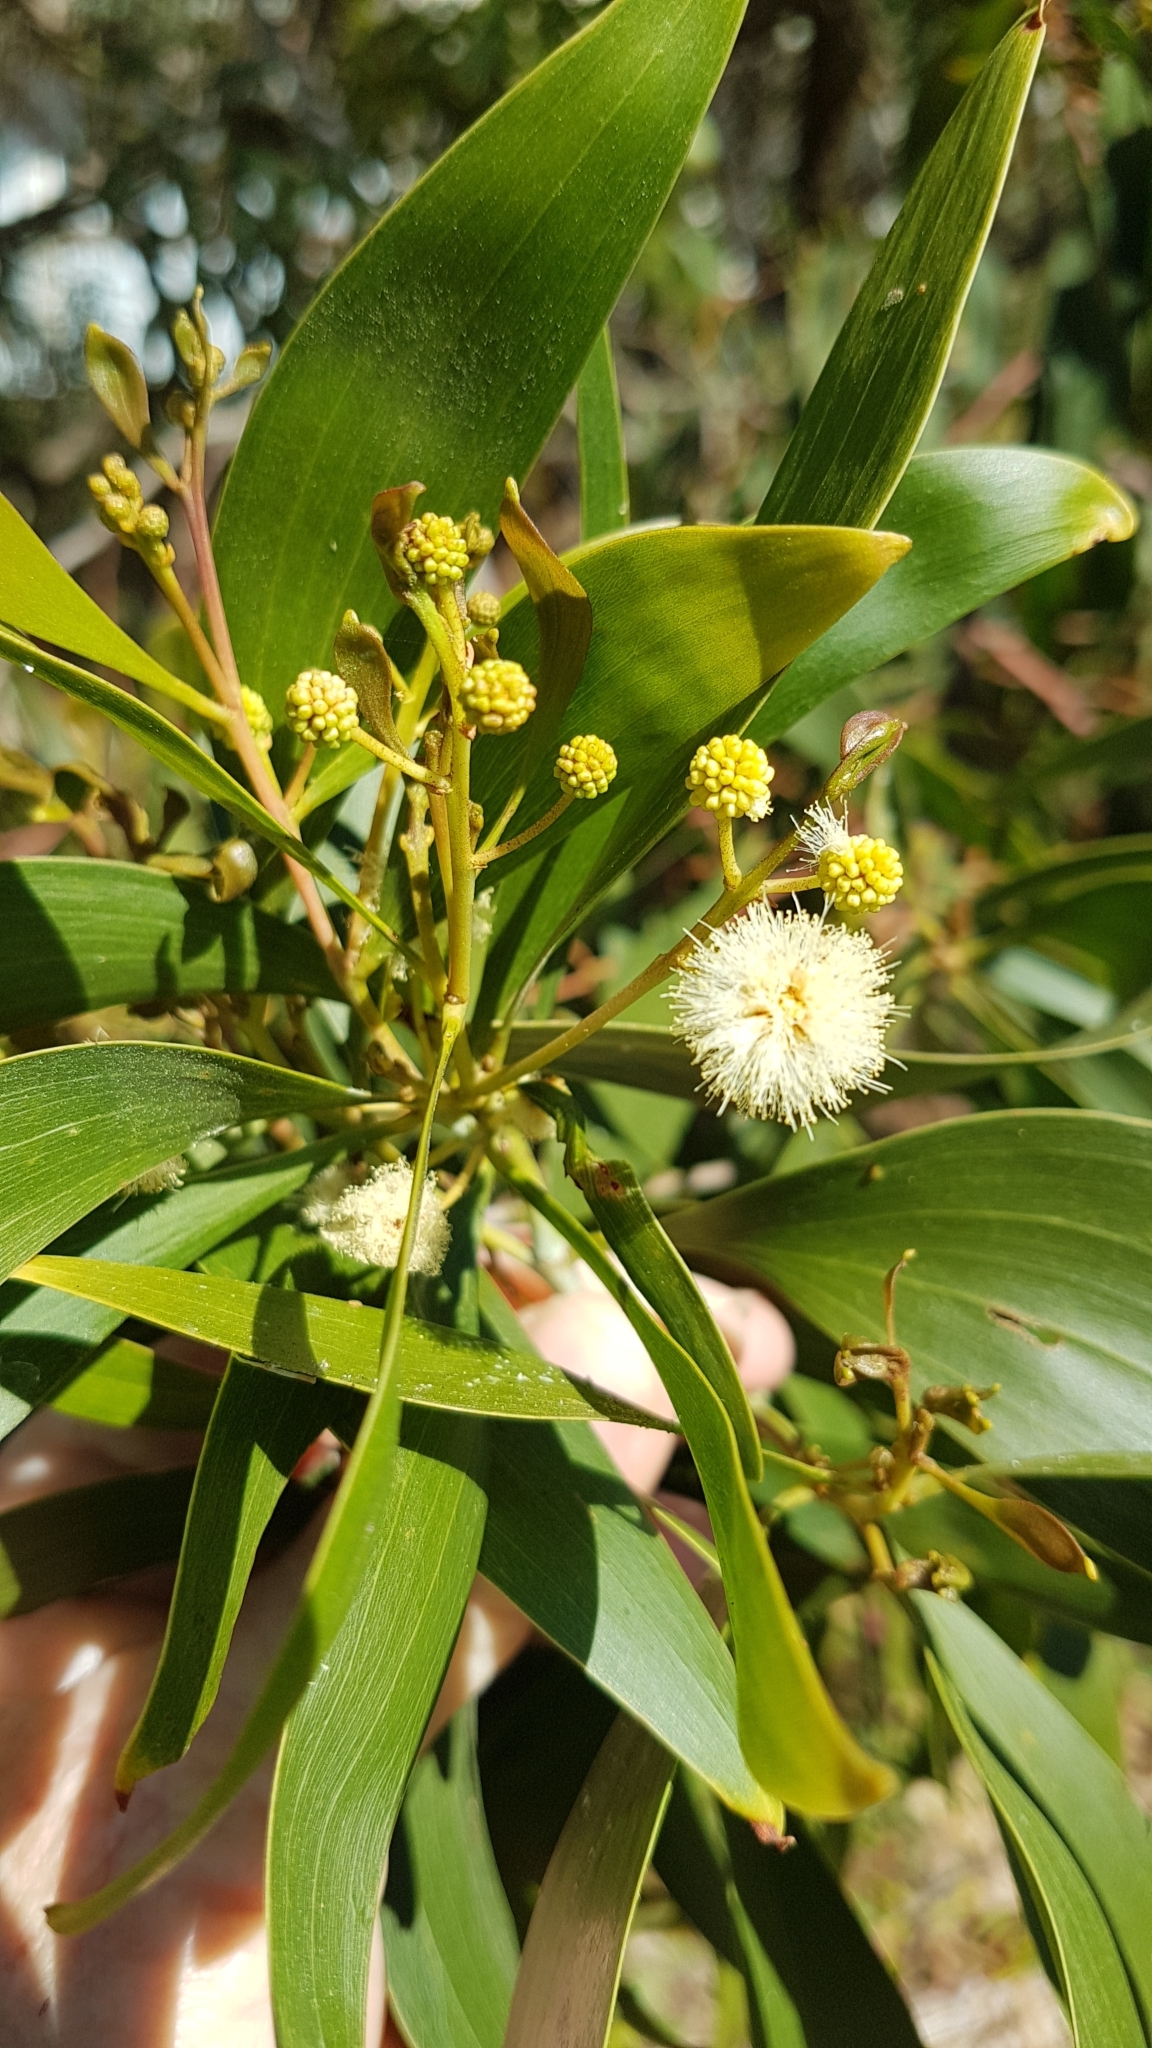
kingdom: Plantae
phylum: Tracheophyta
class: Magnoliopsida
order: Fabales
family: Fabaceae
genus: Acacia
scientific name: Acacia melanoxylon
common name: Blackwood
